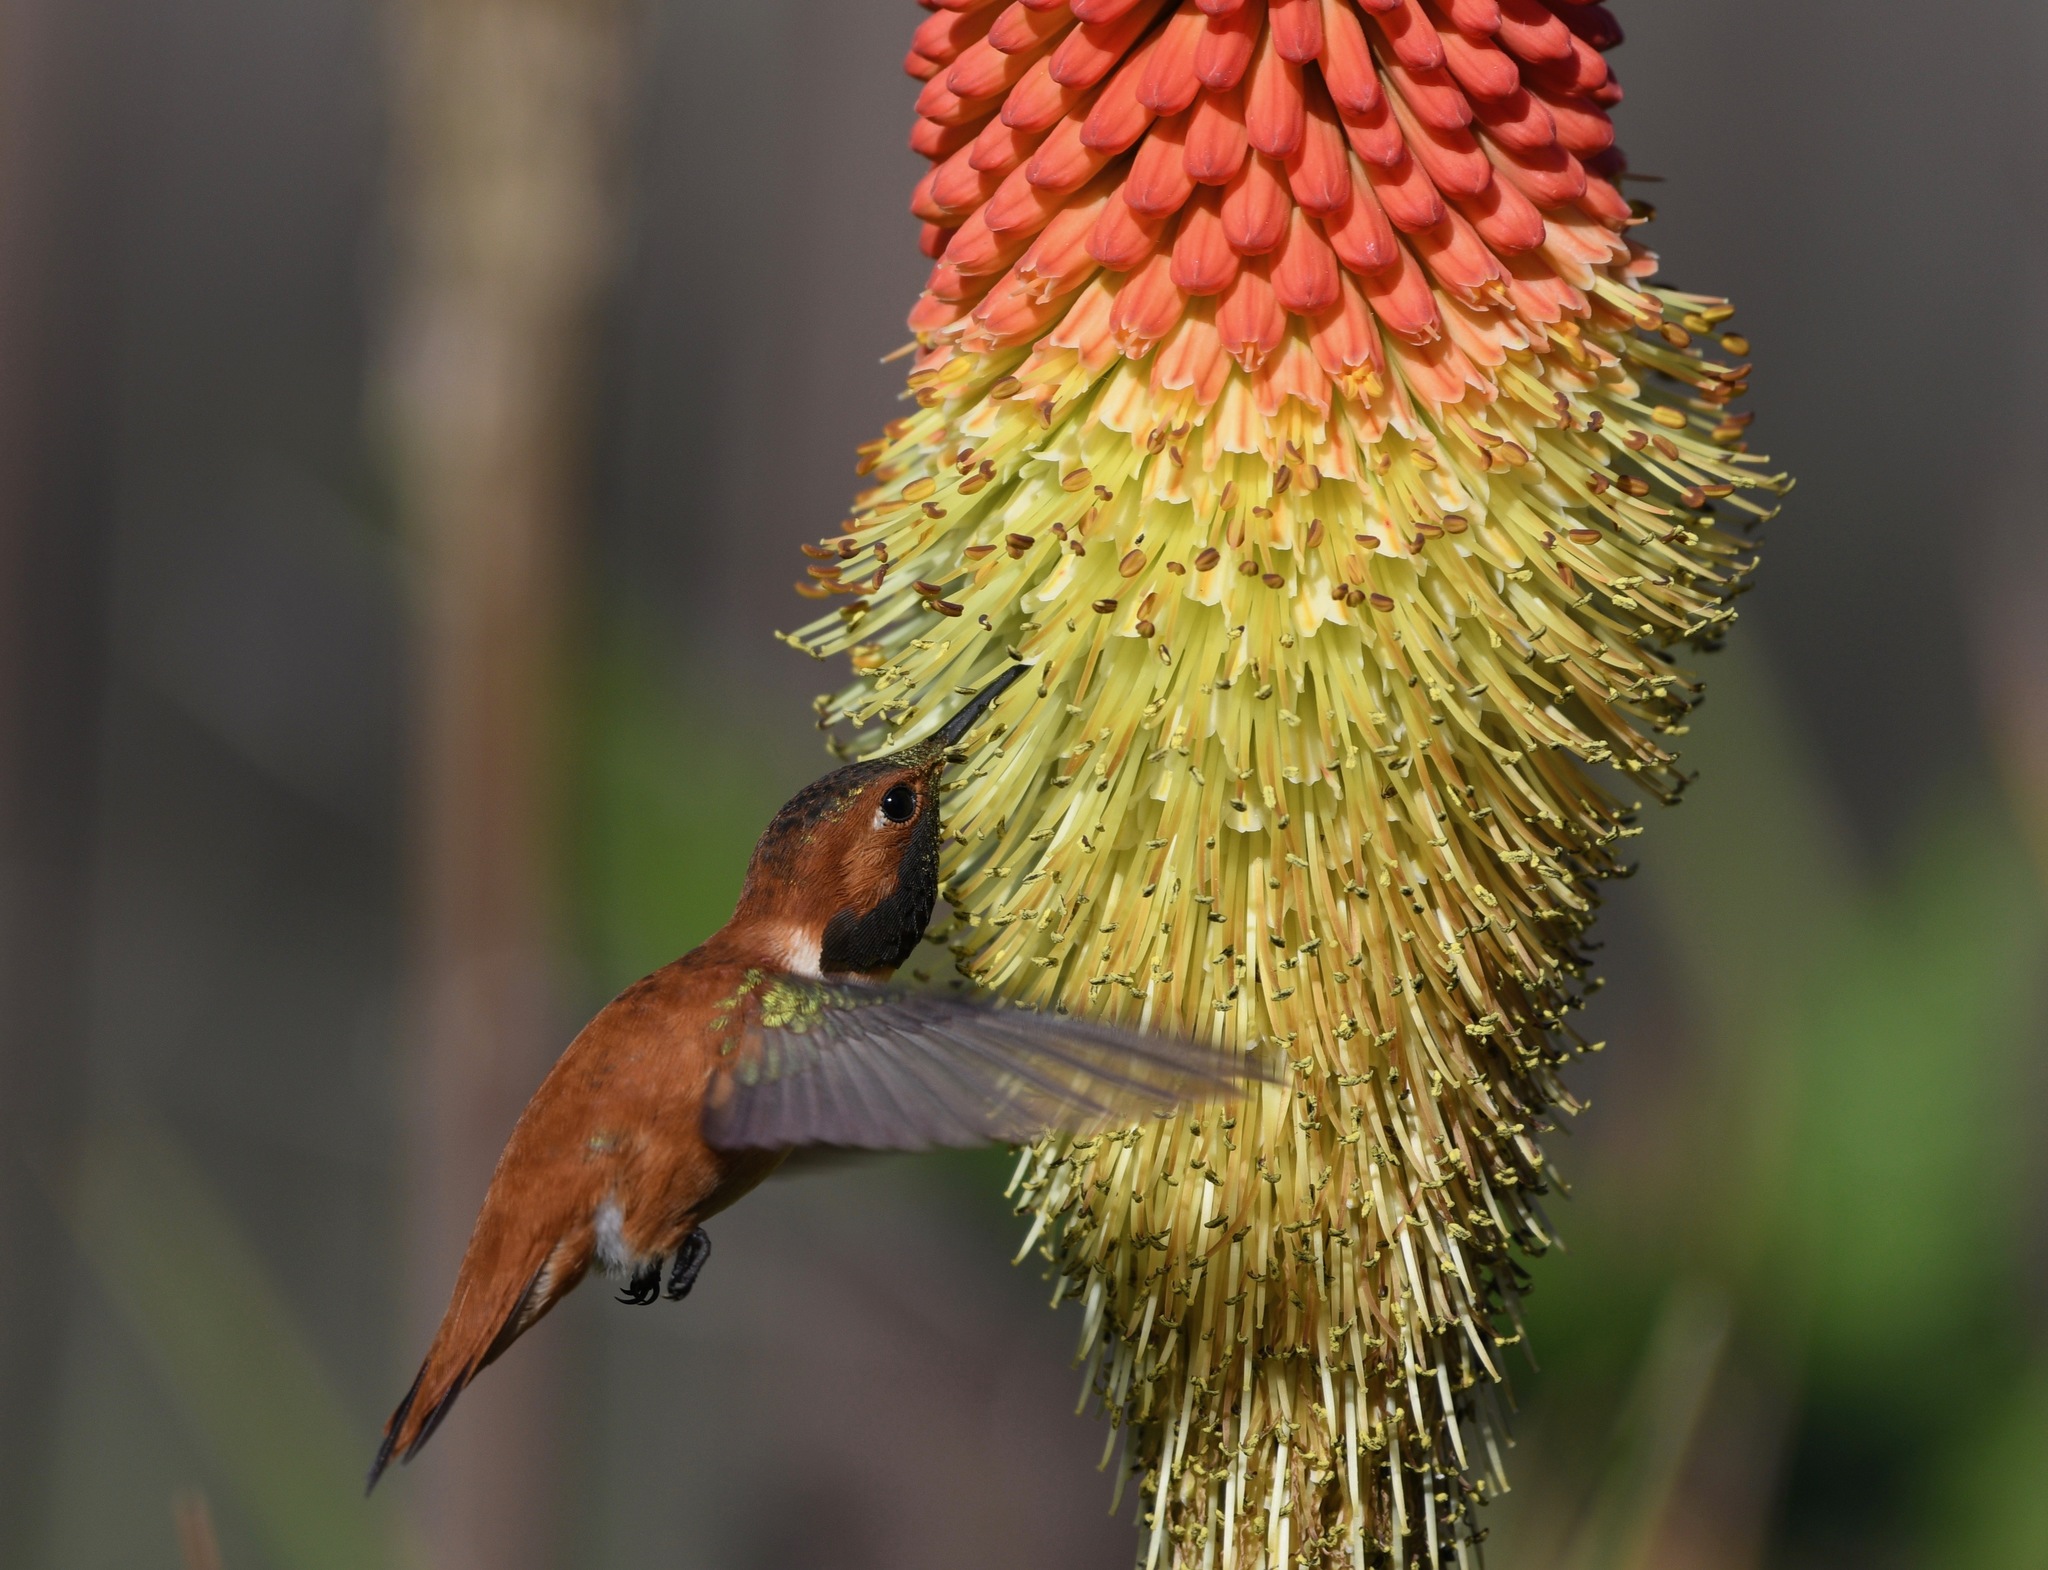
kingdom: Animalia
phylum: Chordata
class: Aves
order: Apodiformes
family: Trochilidae
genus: Selasphorus
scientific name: Selasphorus rufus
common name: Rufous hummingbird
